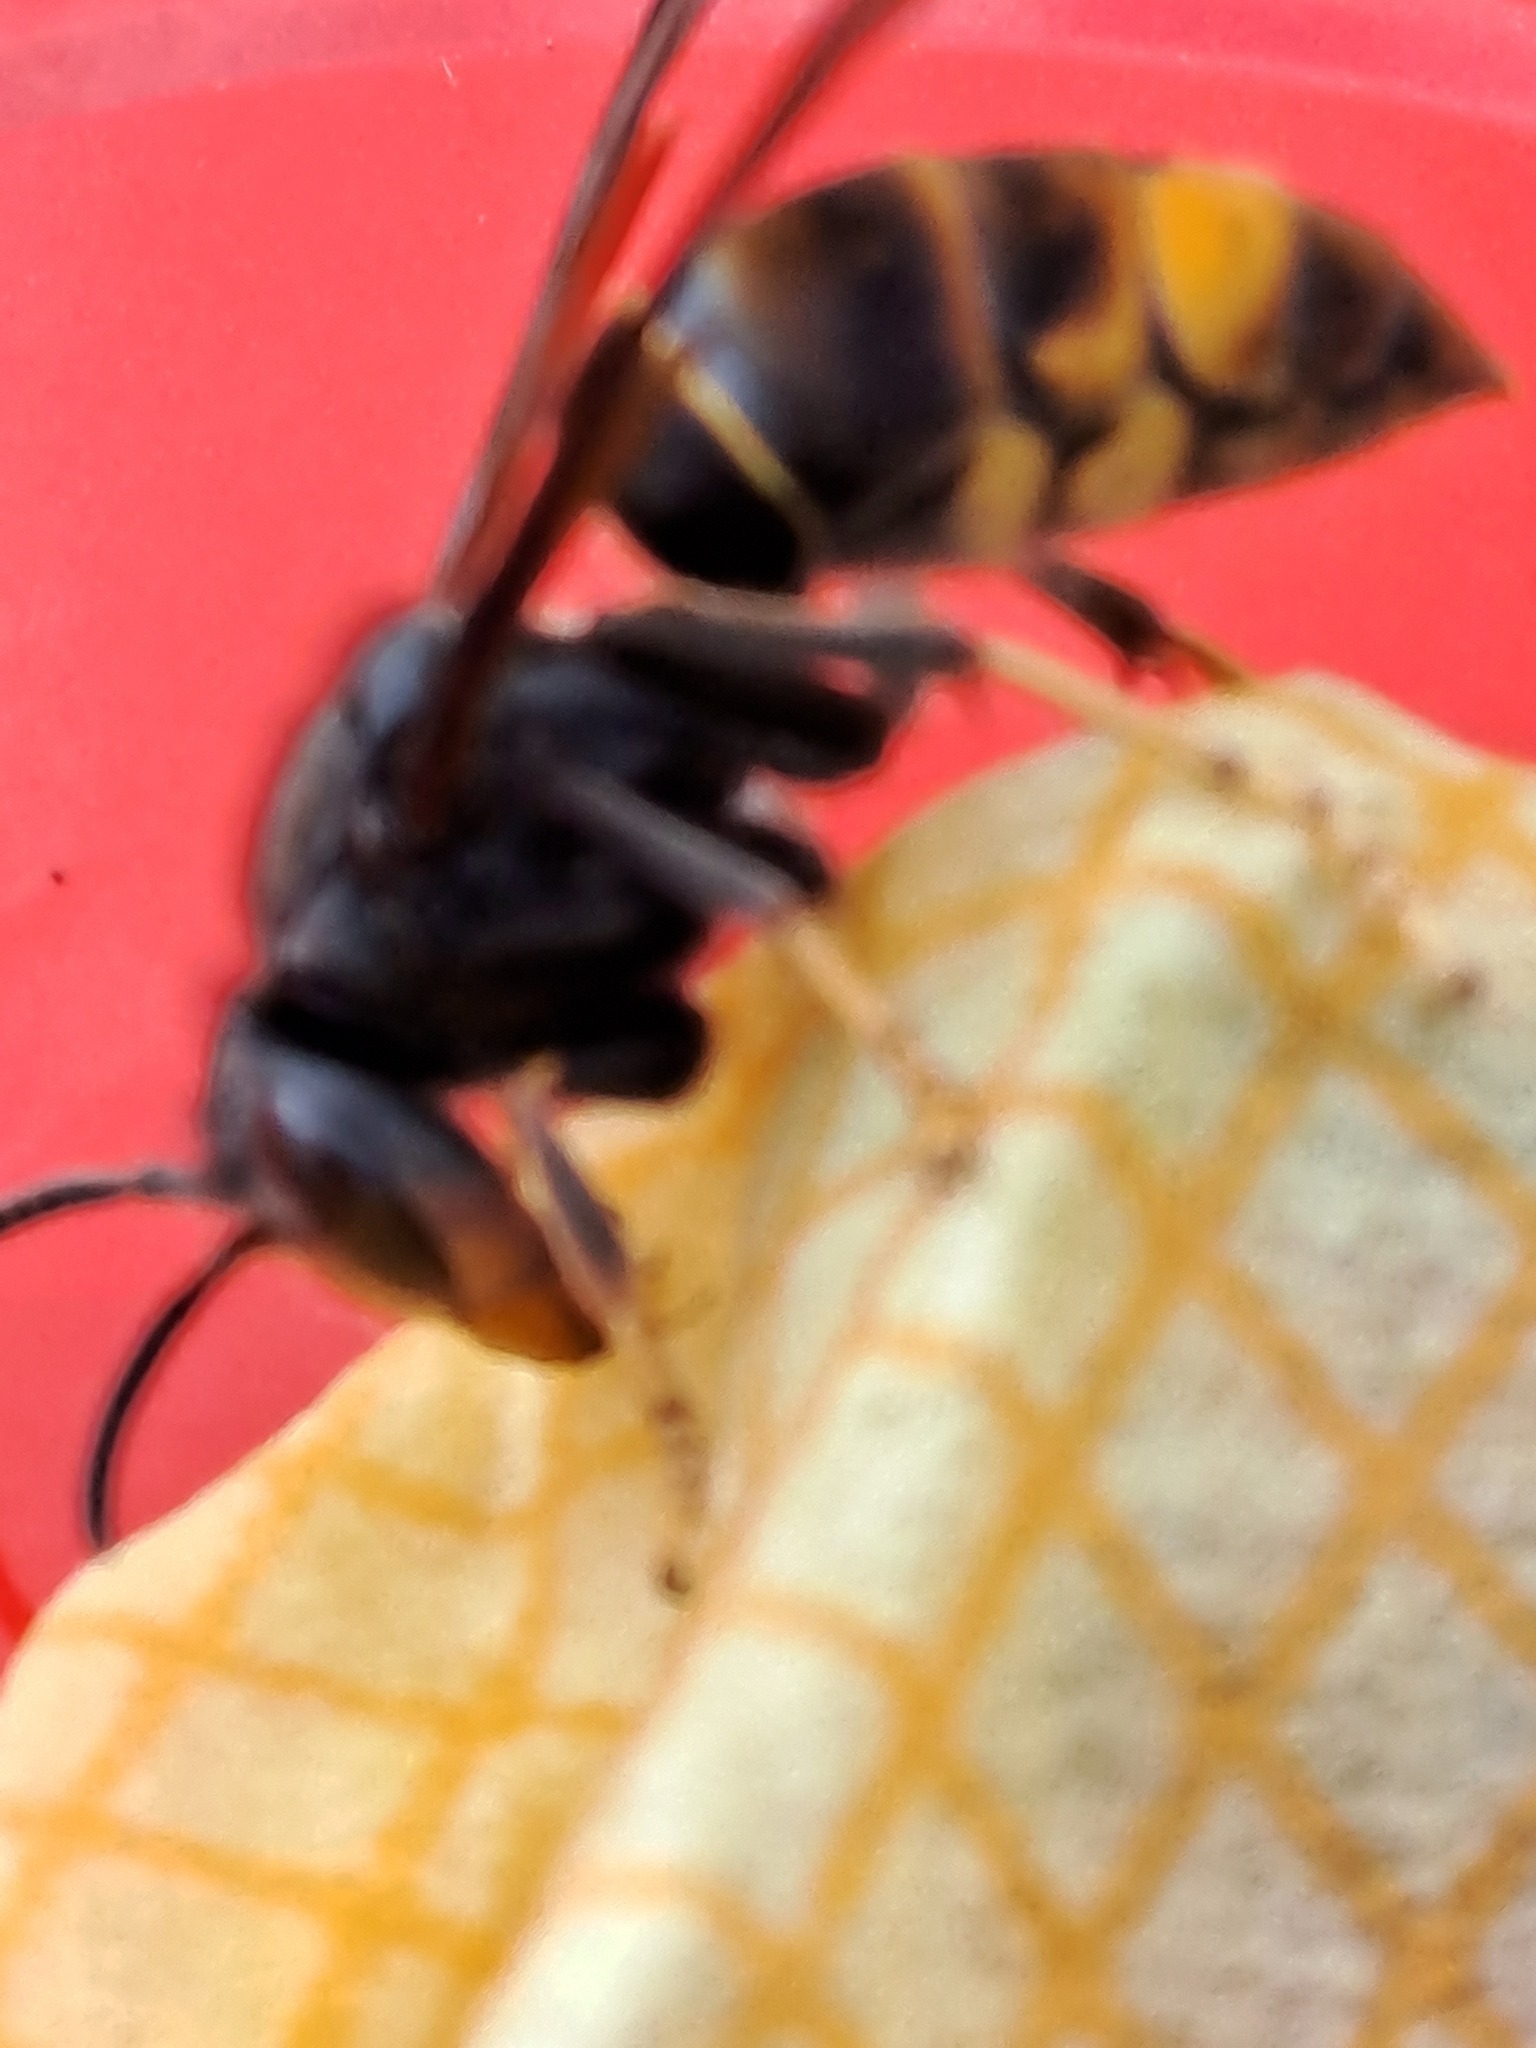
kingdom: Animalia
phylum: Arthropoda
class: Insecta
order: Hymenoptera
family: Vespidae
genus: Vespa
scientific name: Vespa velutina
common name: Asian hornet
